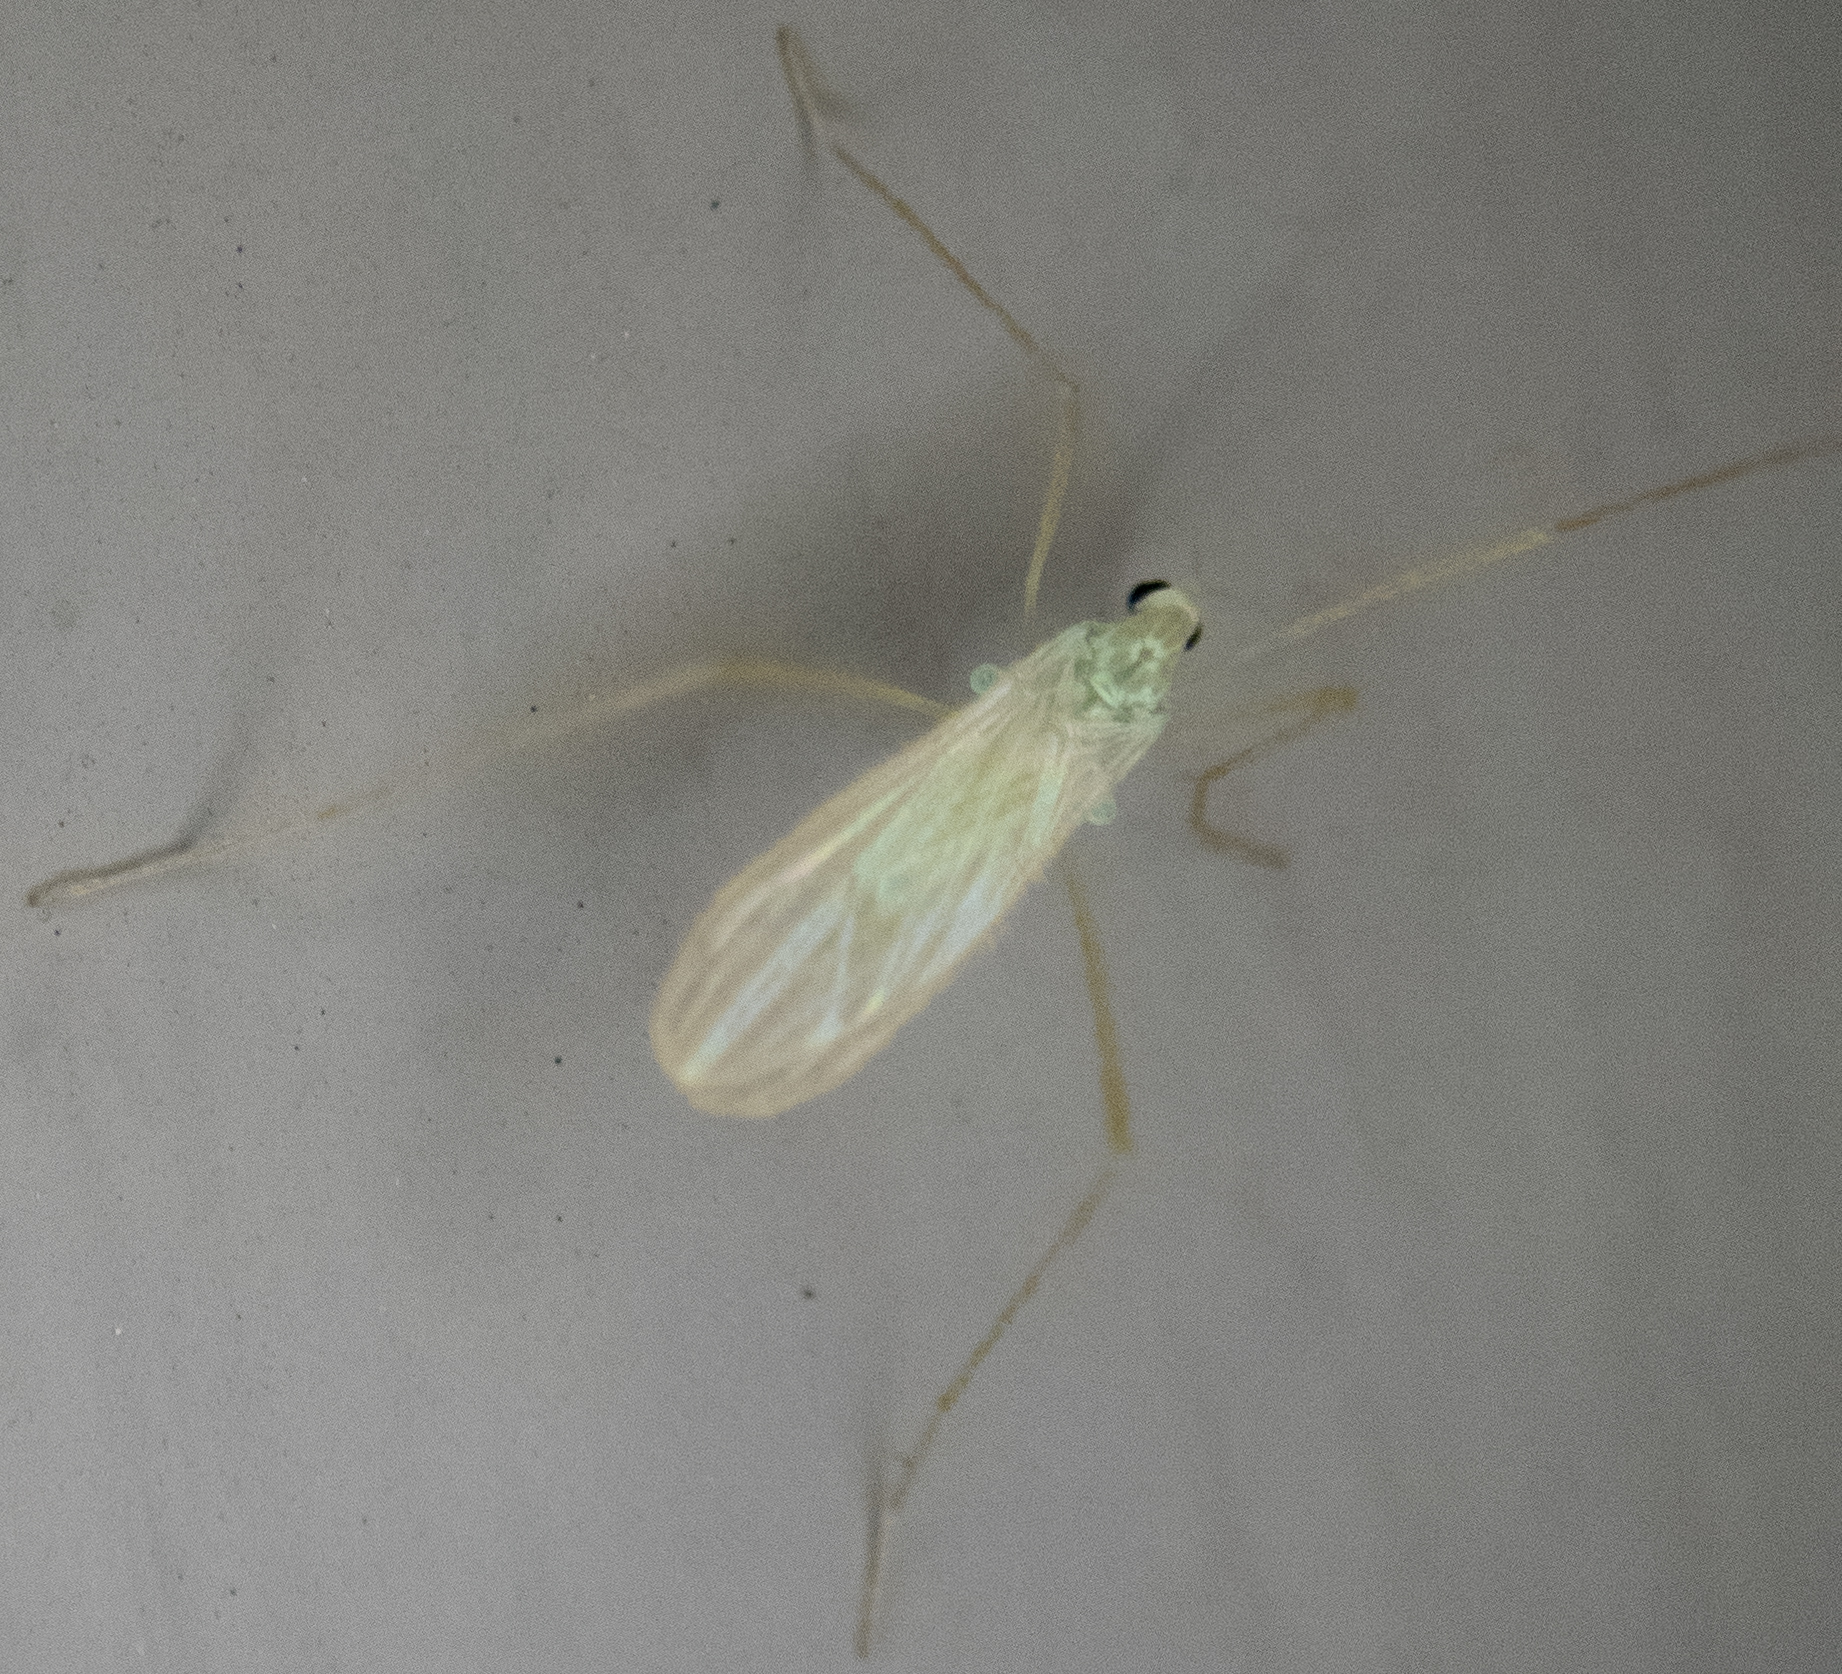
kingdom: Animalia
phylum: Arthropoda
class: Insecta
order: Diptera
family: Limoniidae
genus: Erioptera
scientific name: Erioptera
